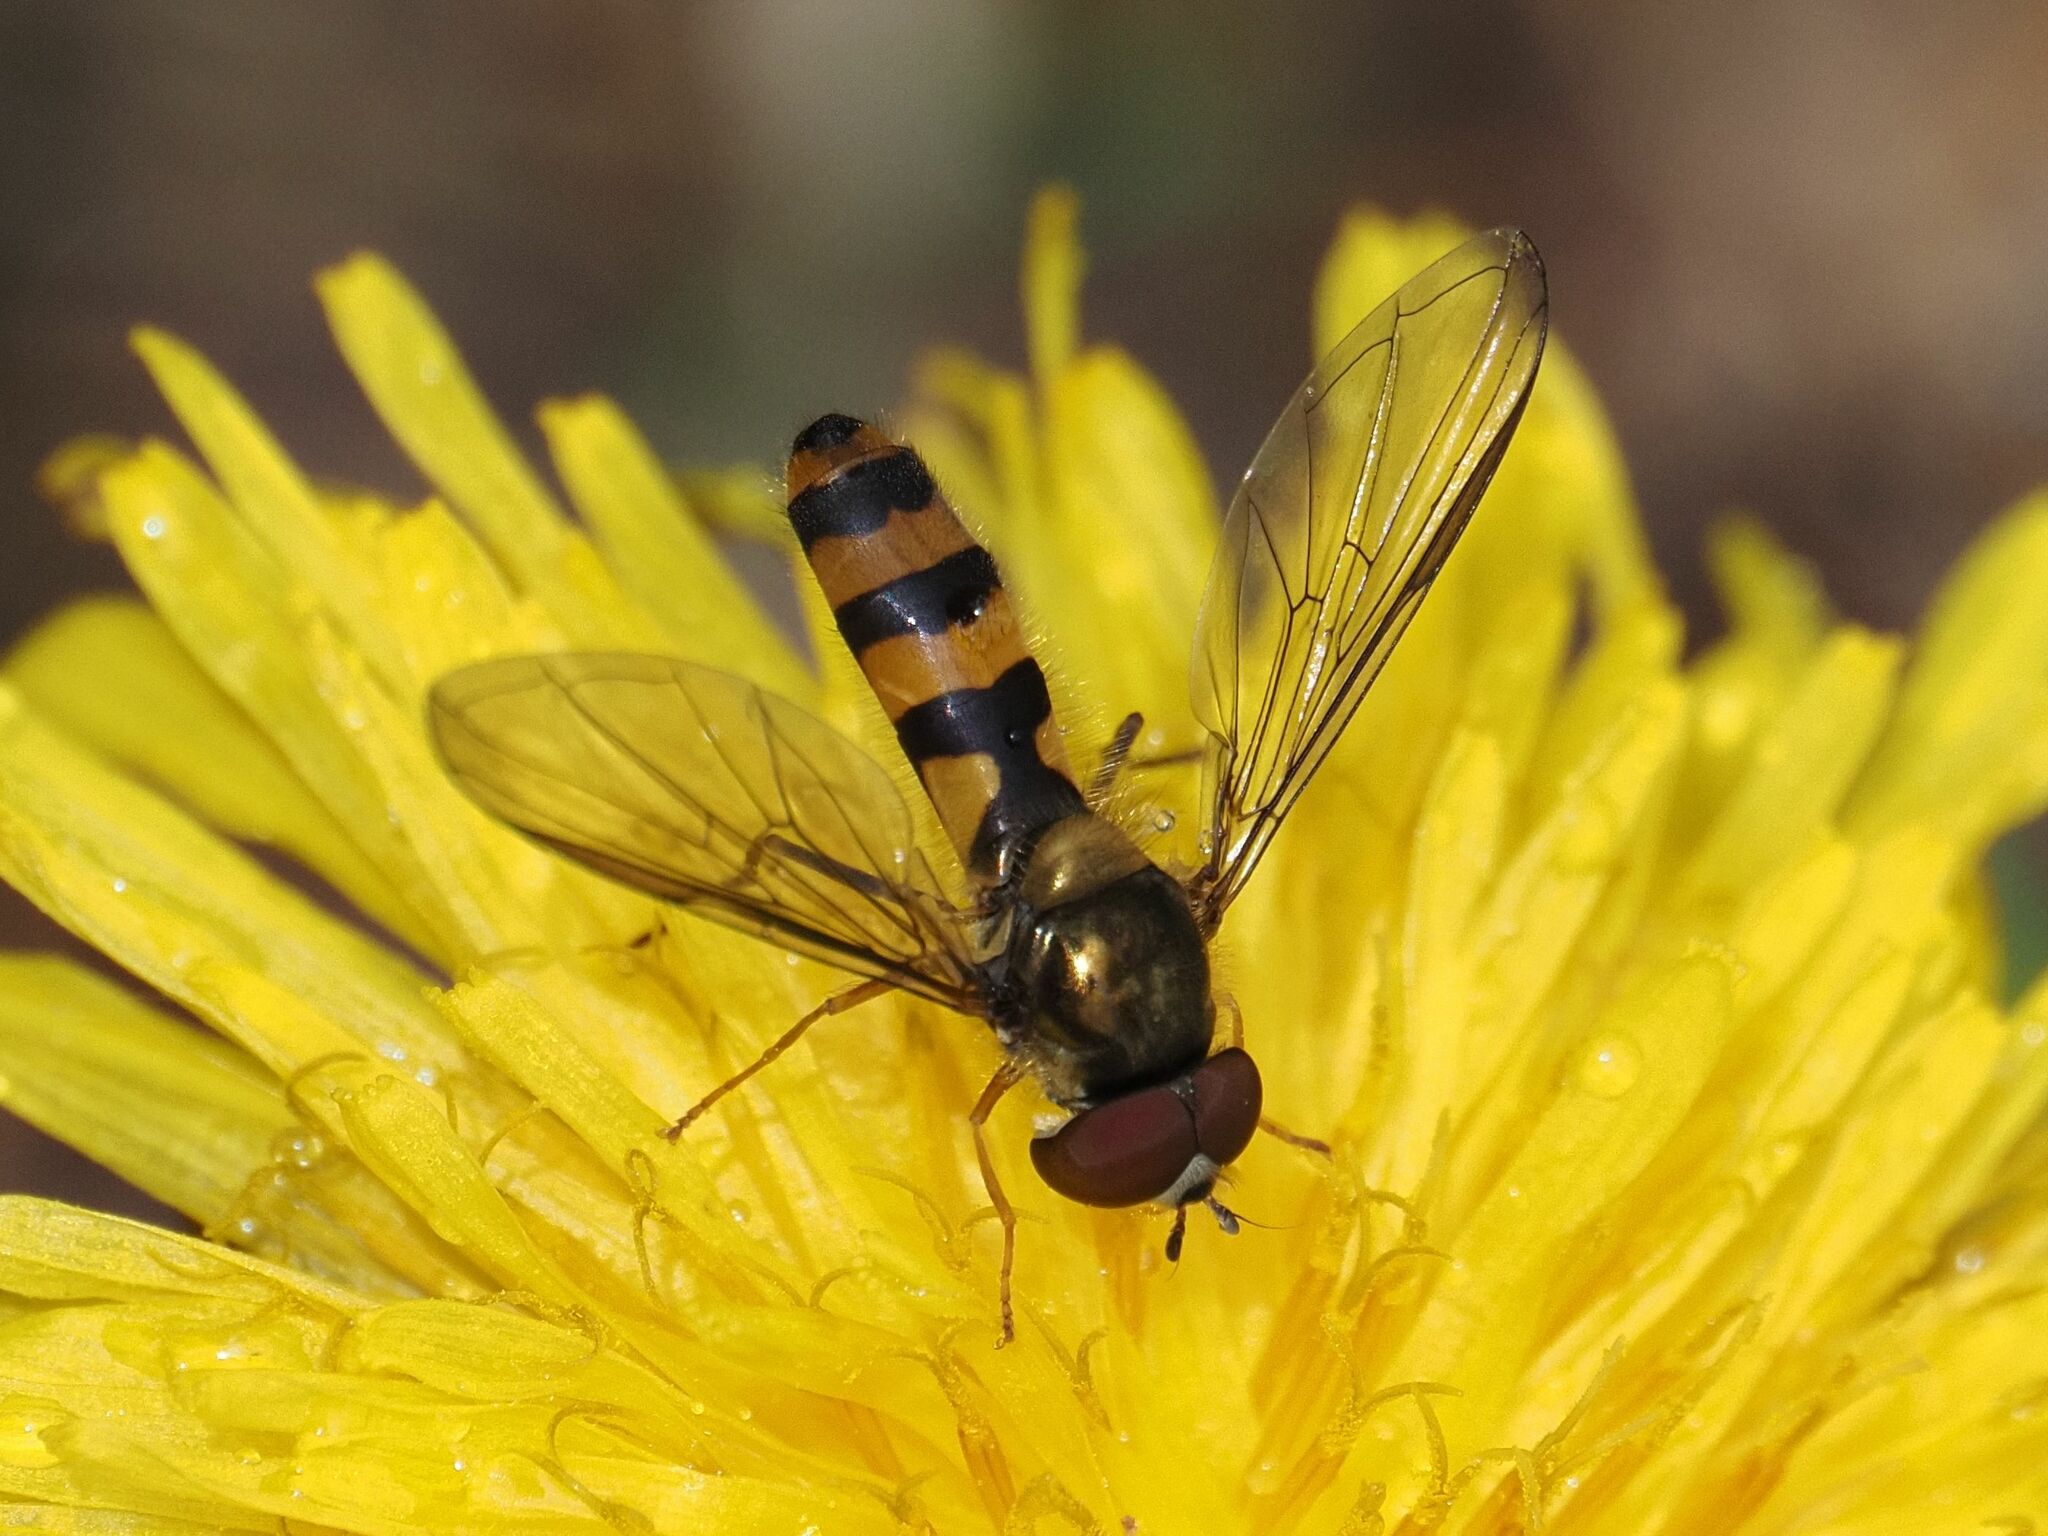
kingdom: Animalia
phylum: Arthropoda
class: Insecta
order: Diptera
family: Syrphidae
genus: Meliscaeva
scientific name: Meliscaeva cinctella
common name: American thintail fly
